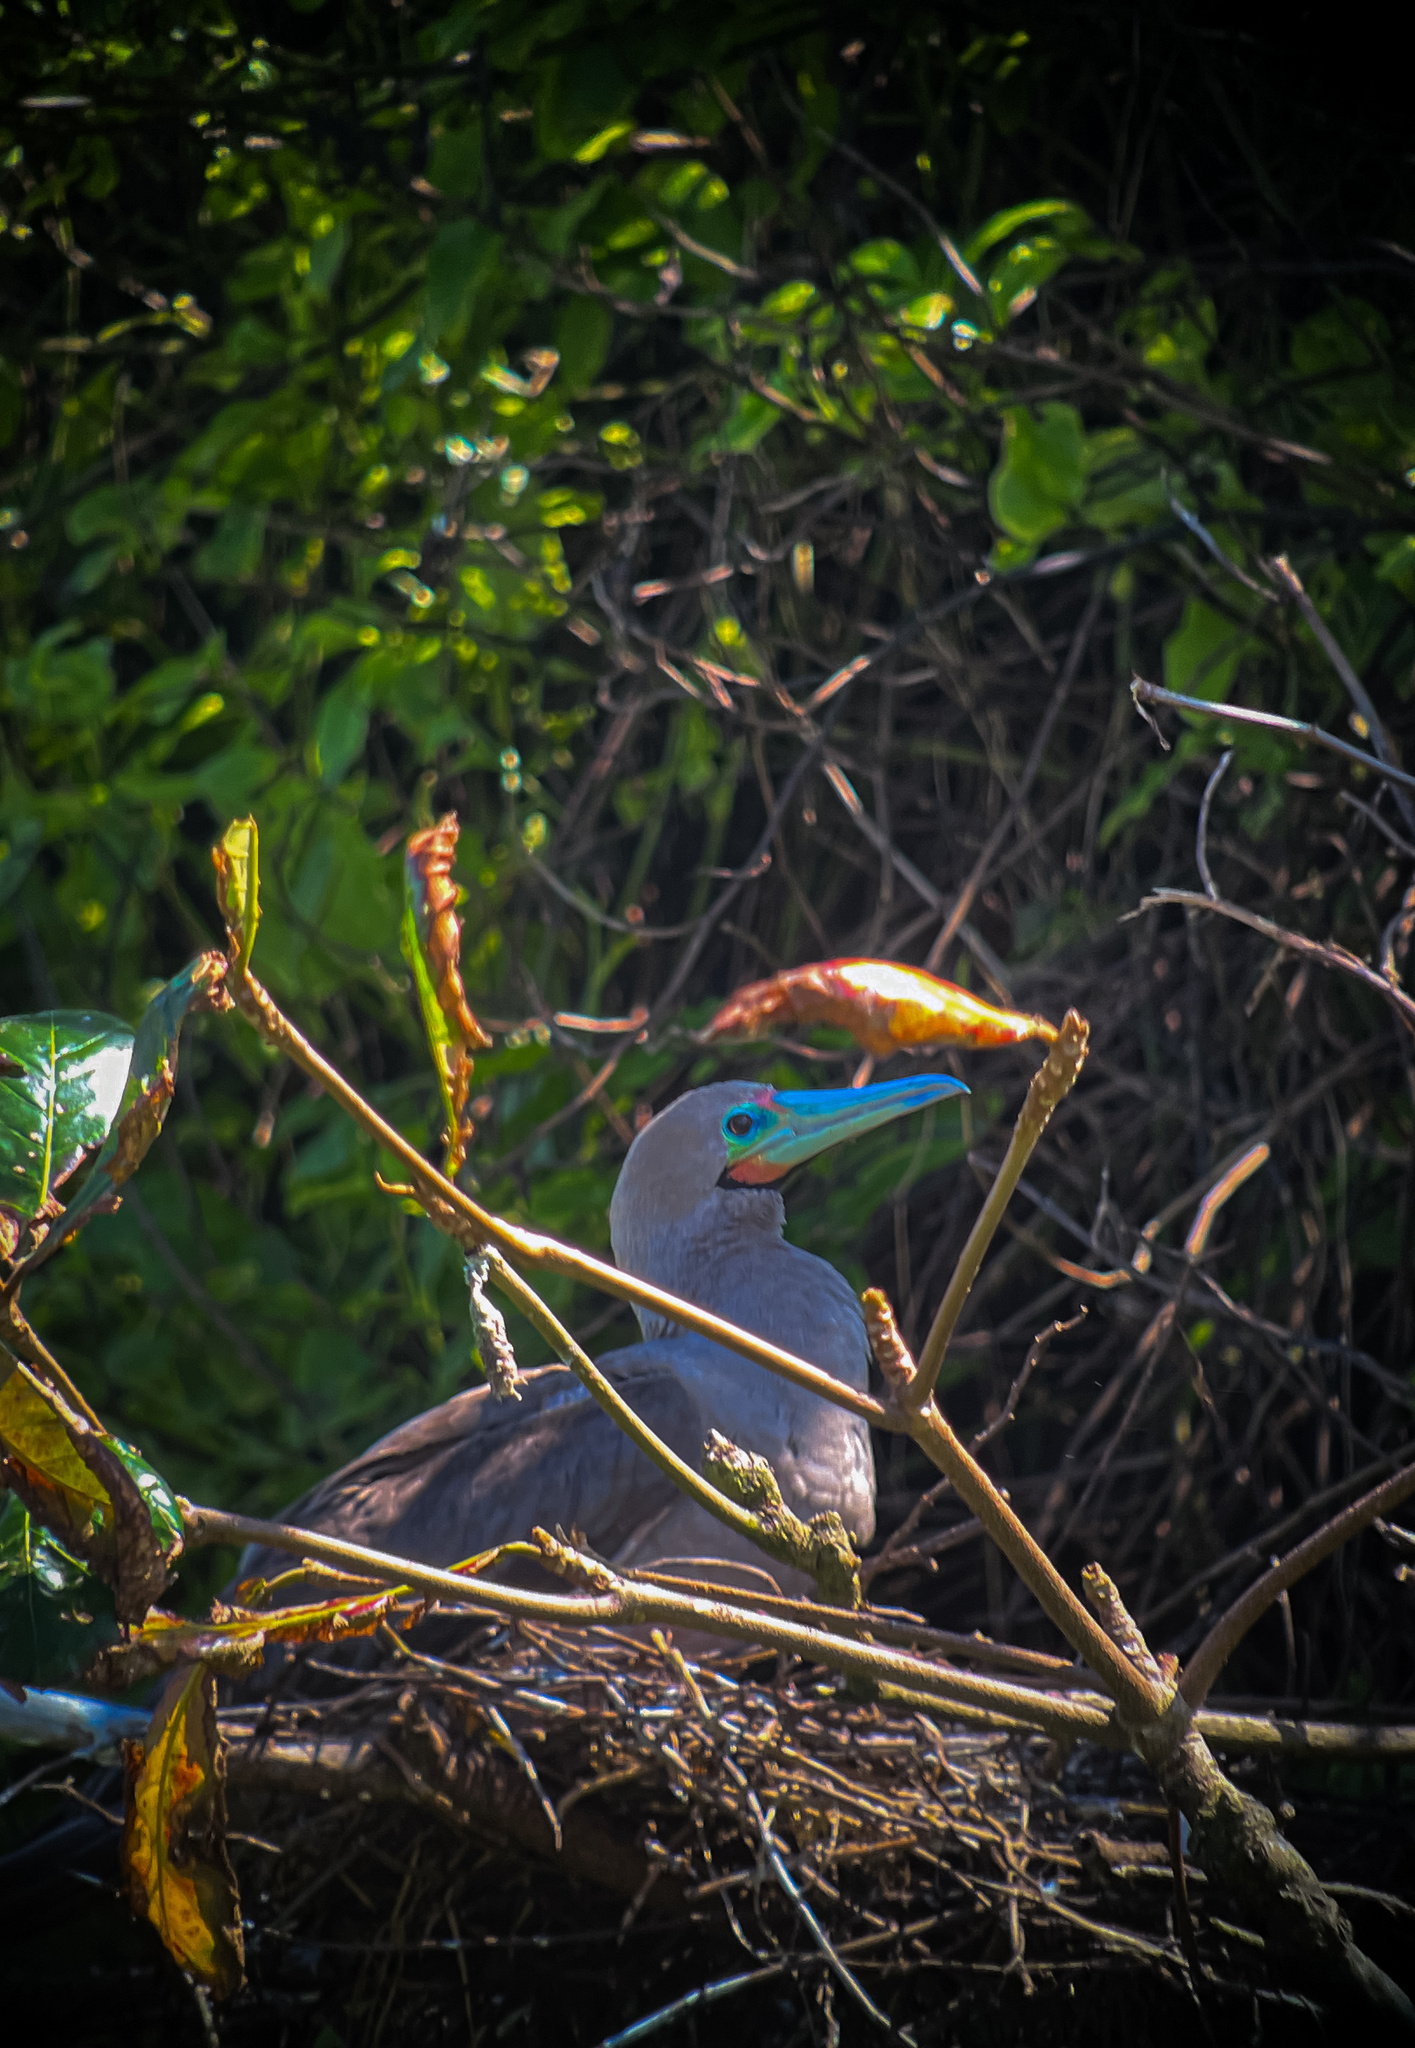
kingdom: Animalia
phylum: Chordata
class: Aves
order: Suliformes
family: Sulidae
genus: Sula
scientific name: Sula sula
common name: Red-footed booby
